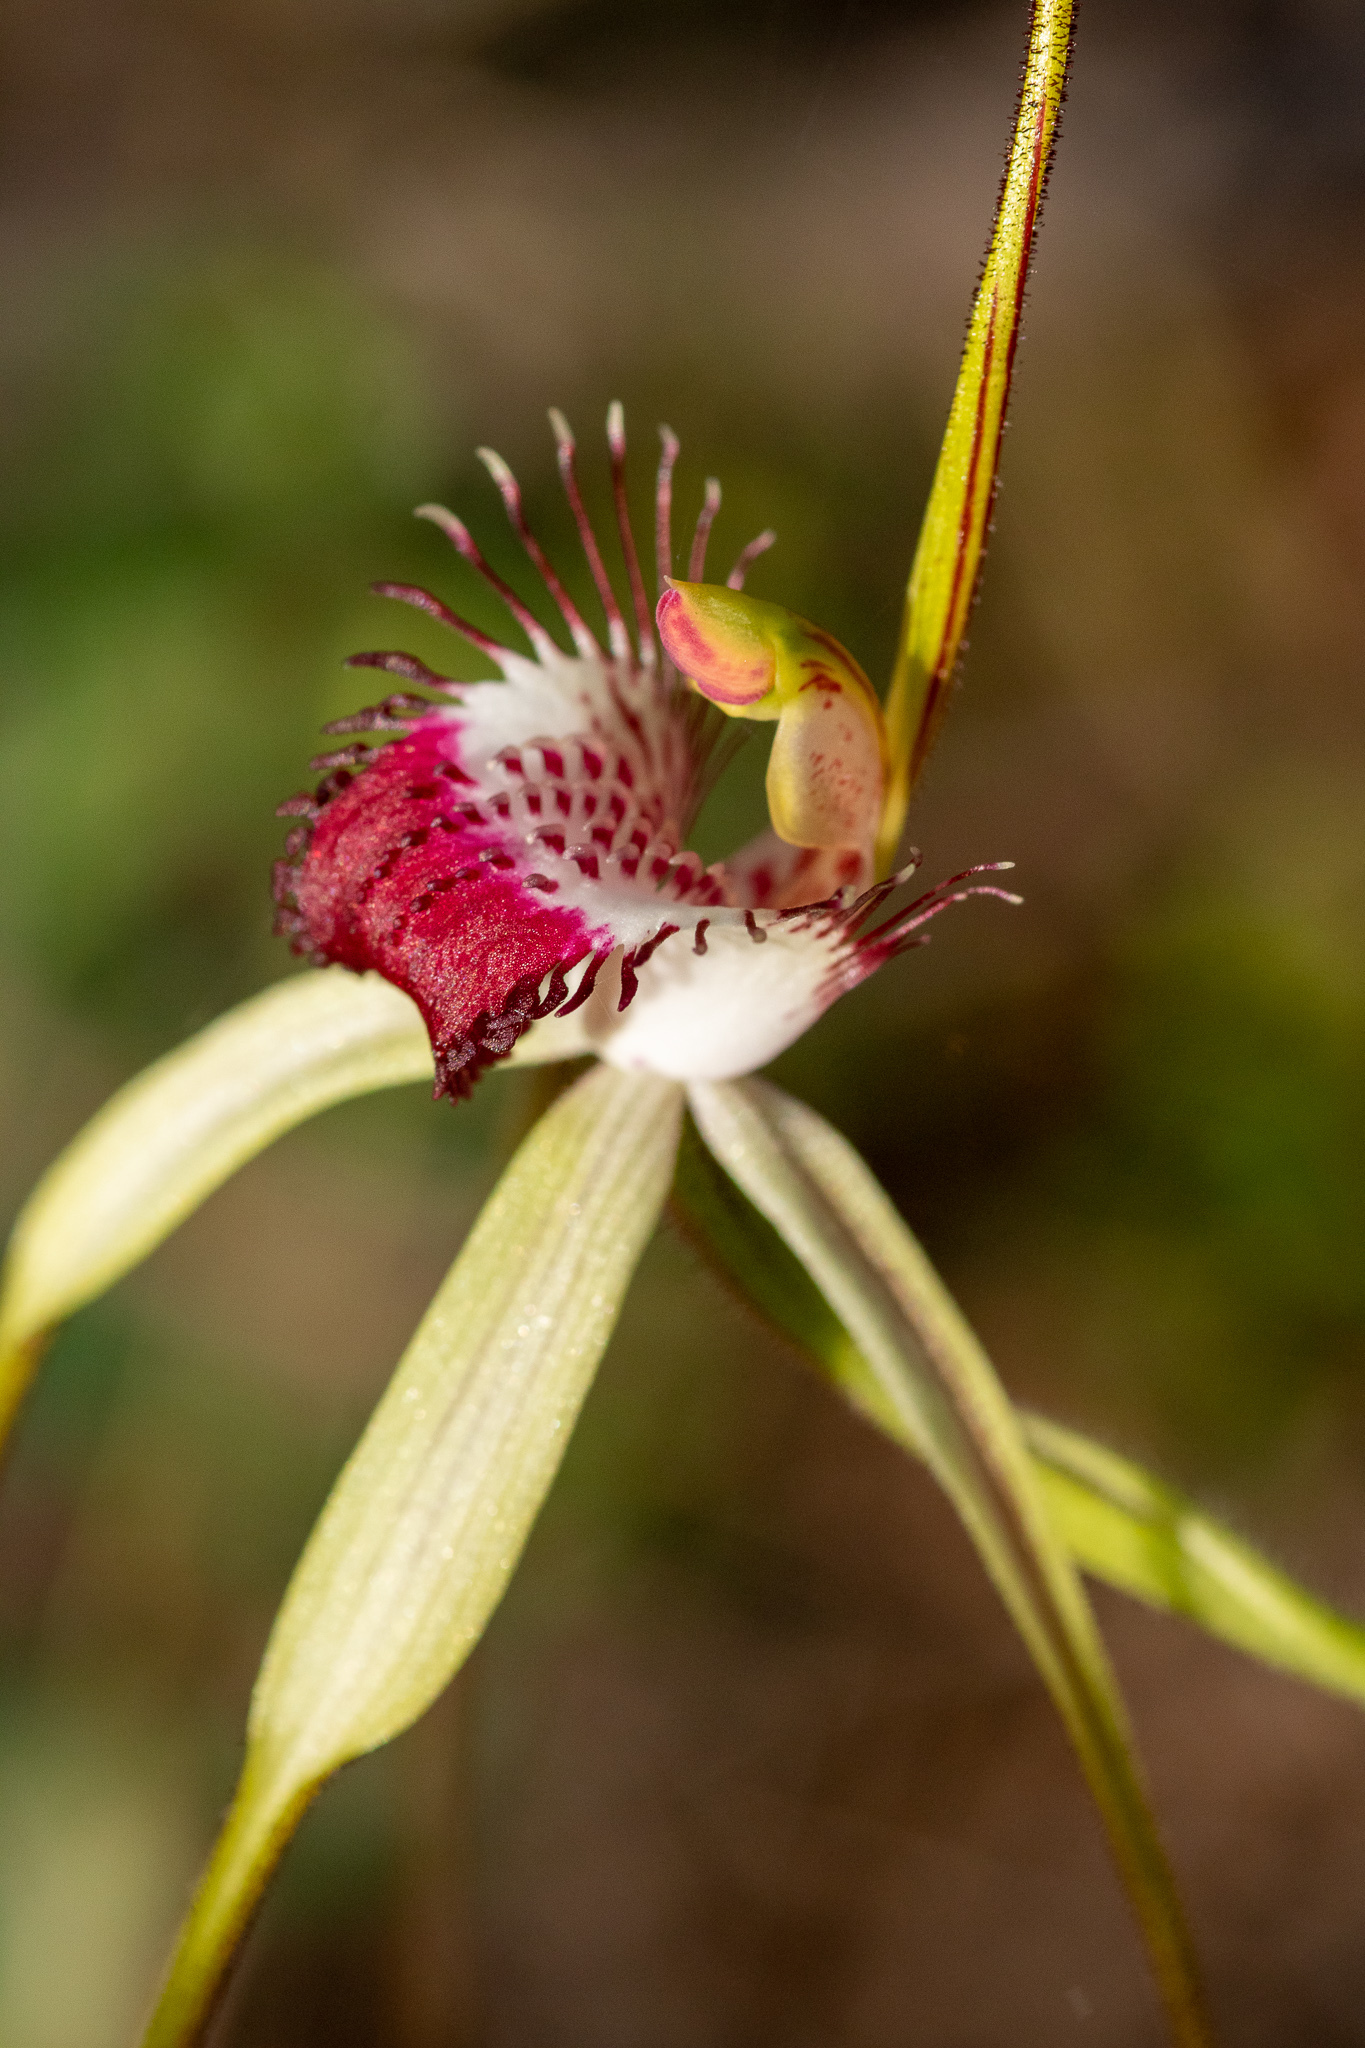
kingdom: Plantae
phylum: Tracheophyta
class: Liliopsida
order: Asparagales
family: Orchidaceae
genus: Caladenia
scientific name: Caladenia excelsa
